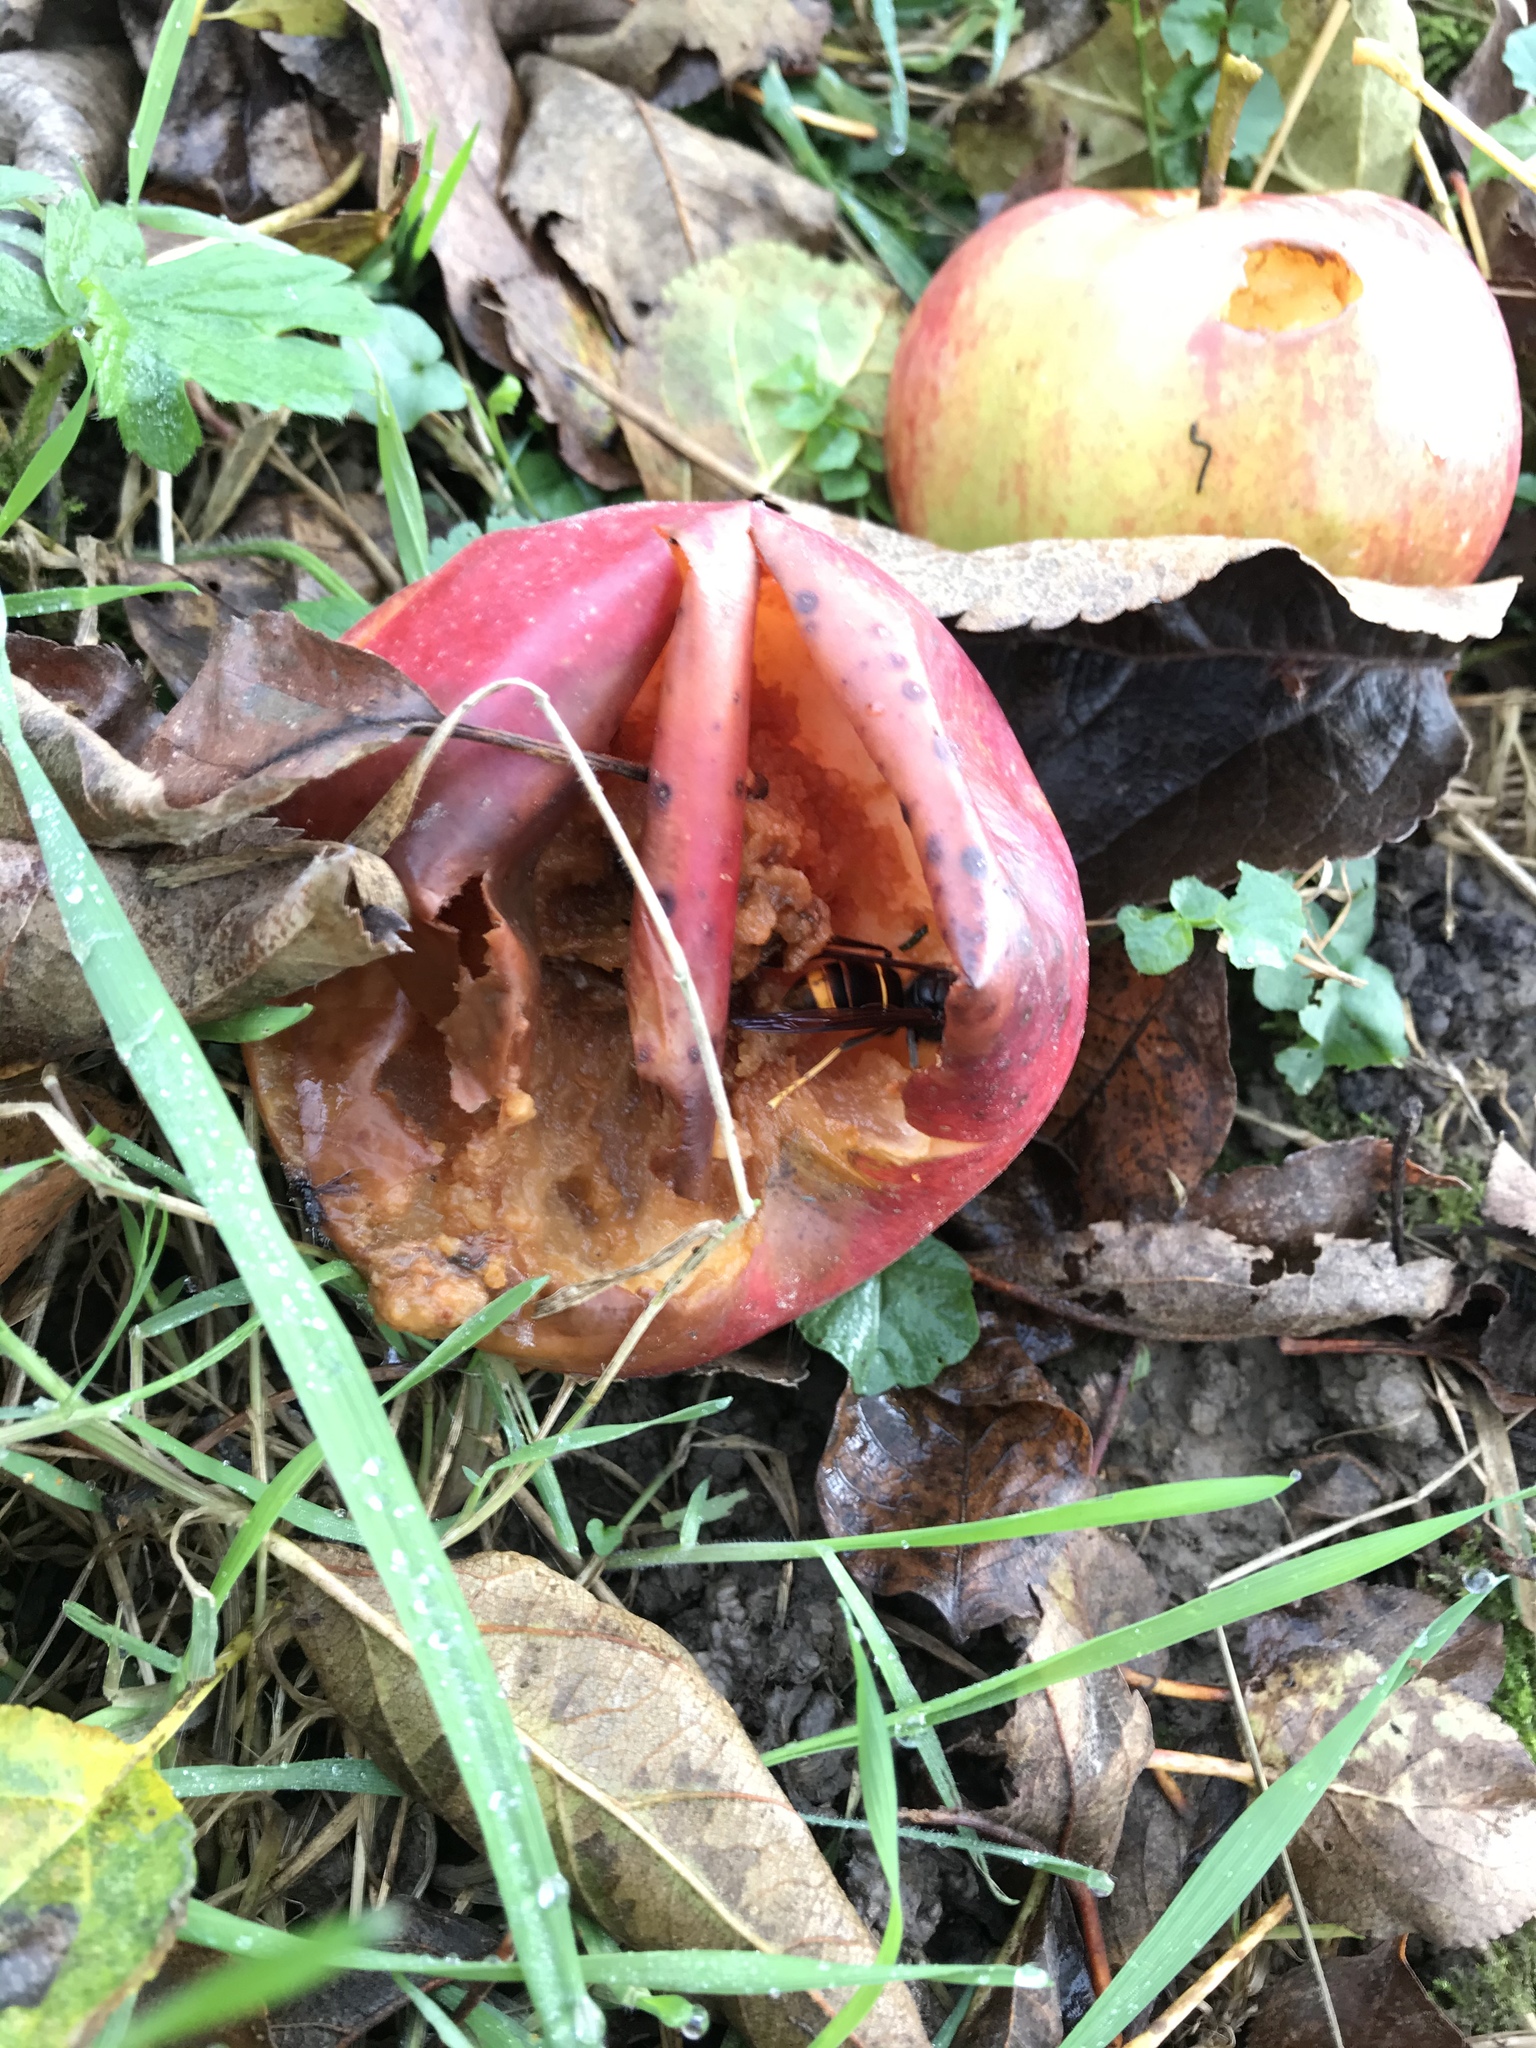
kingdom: Animalia
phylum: Arthropoda
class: Insecta
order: Hymenoptera
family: Vespidae
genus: Vespa
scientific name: Vespa velutina
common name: Asian hornet
